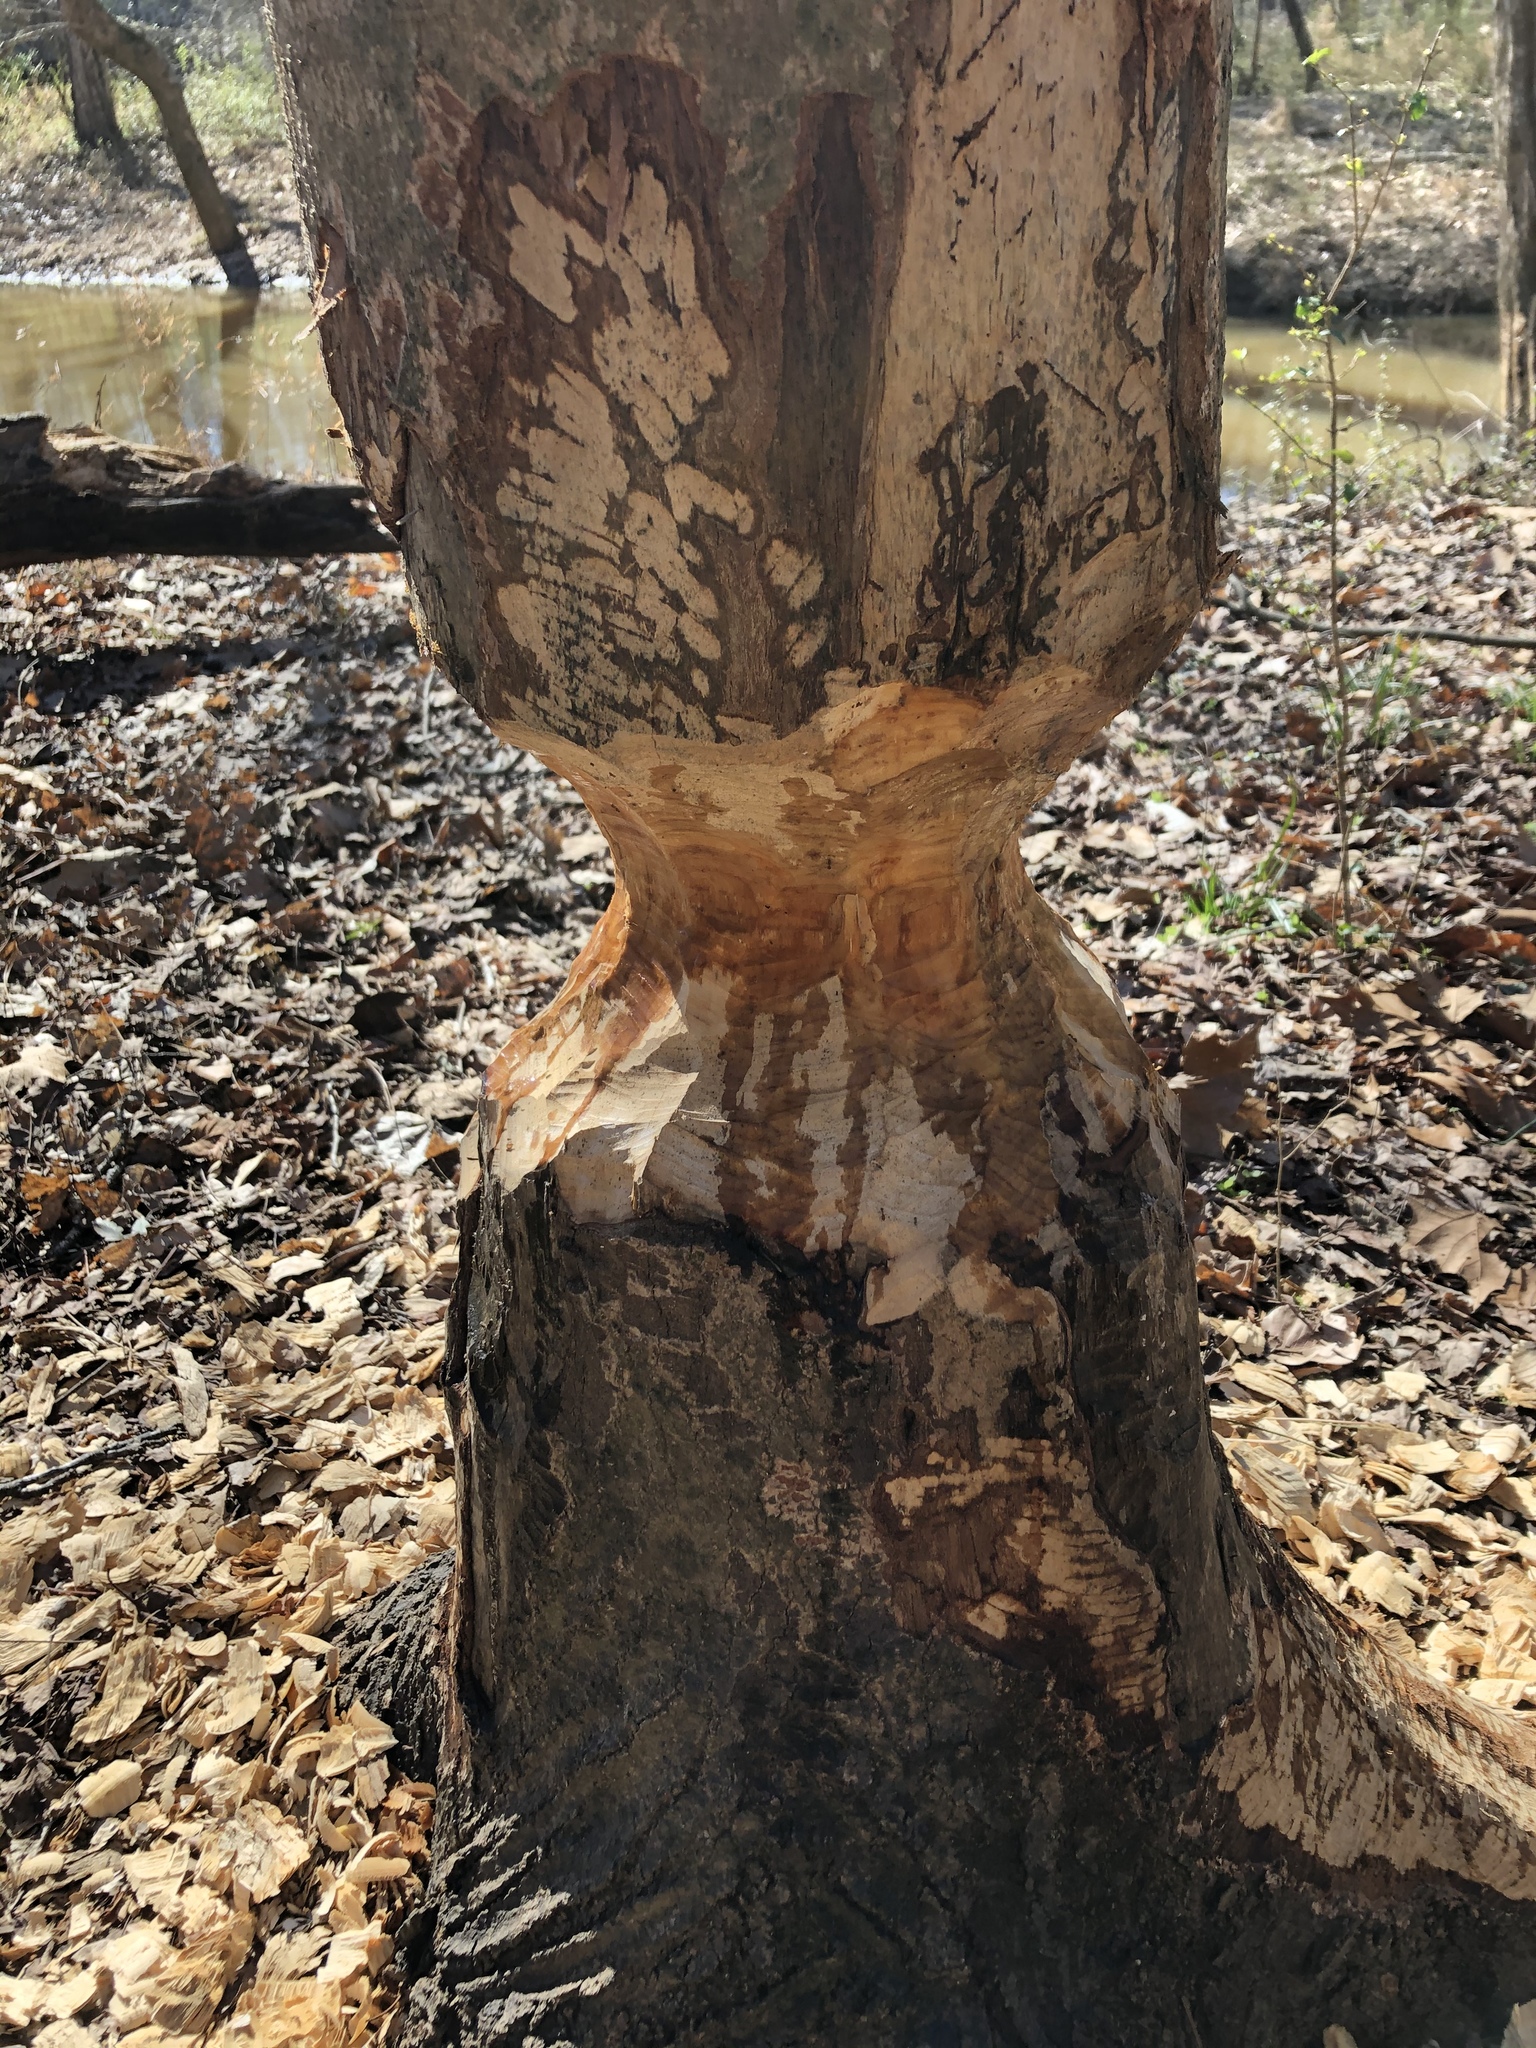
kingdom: Animalia
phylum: Chordata
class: Mammalia
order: Rodentia
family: Castoridae
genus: Castor
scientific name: Castor canadensis
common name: American beaver
